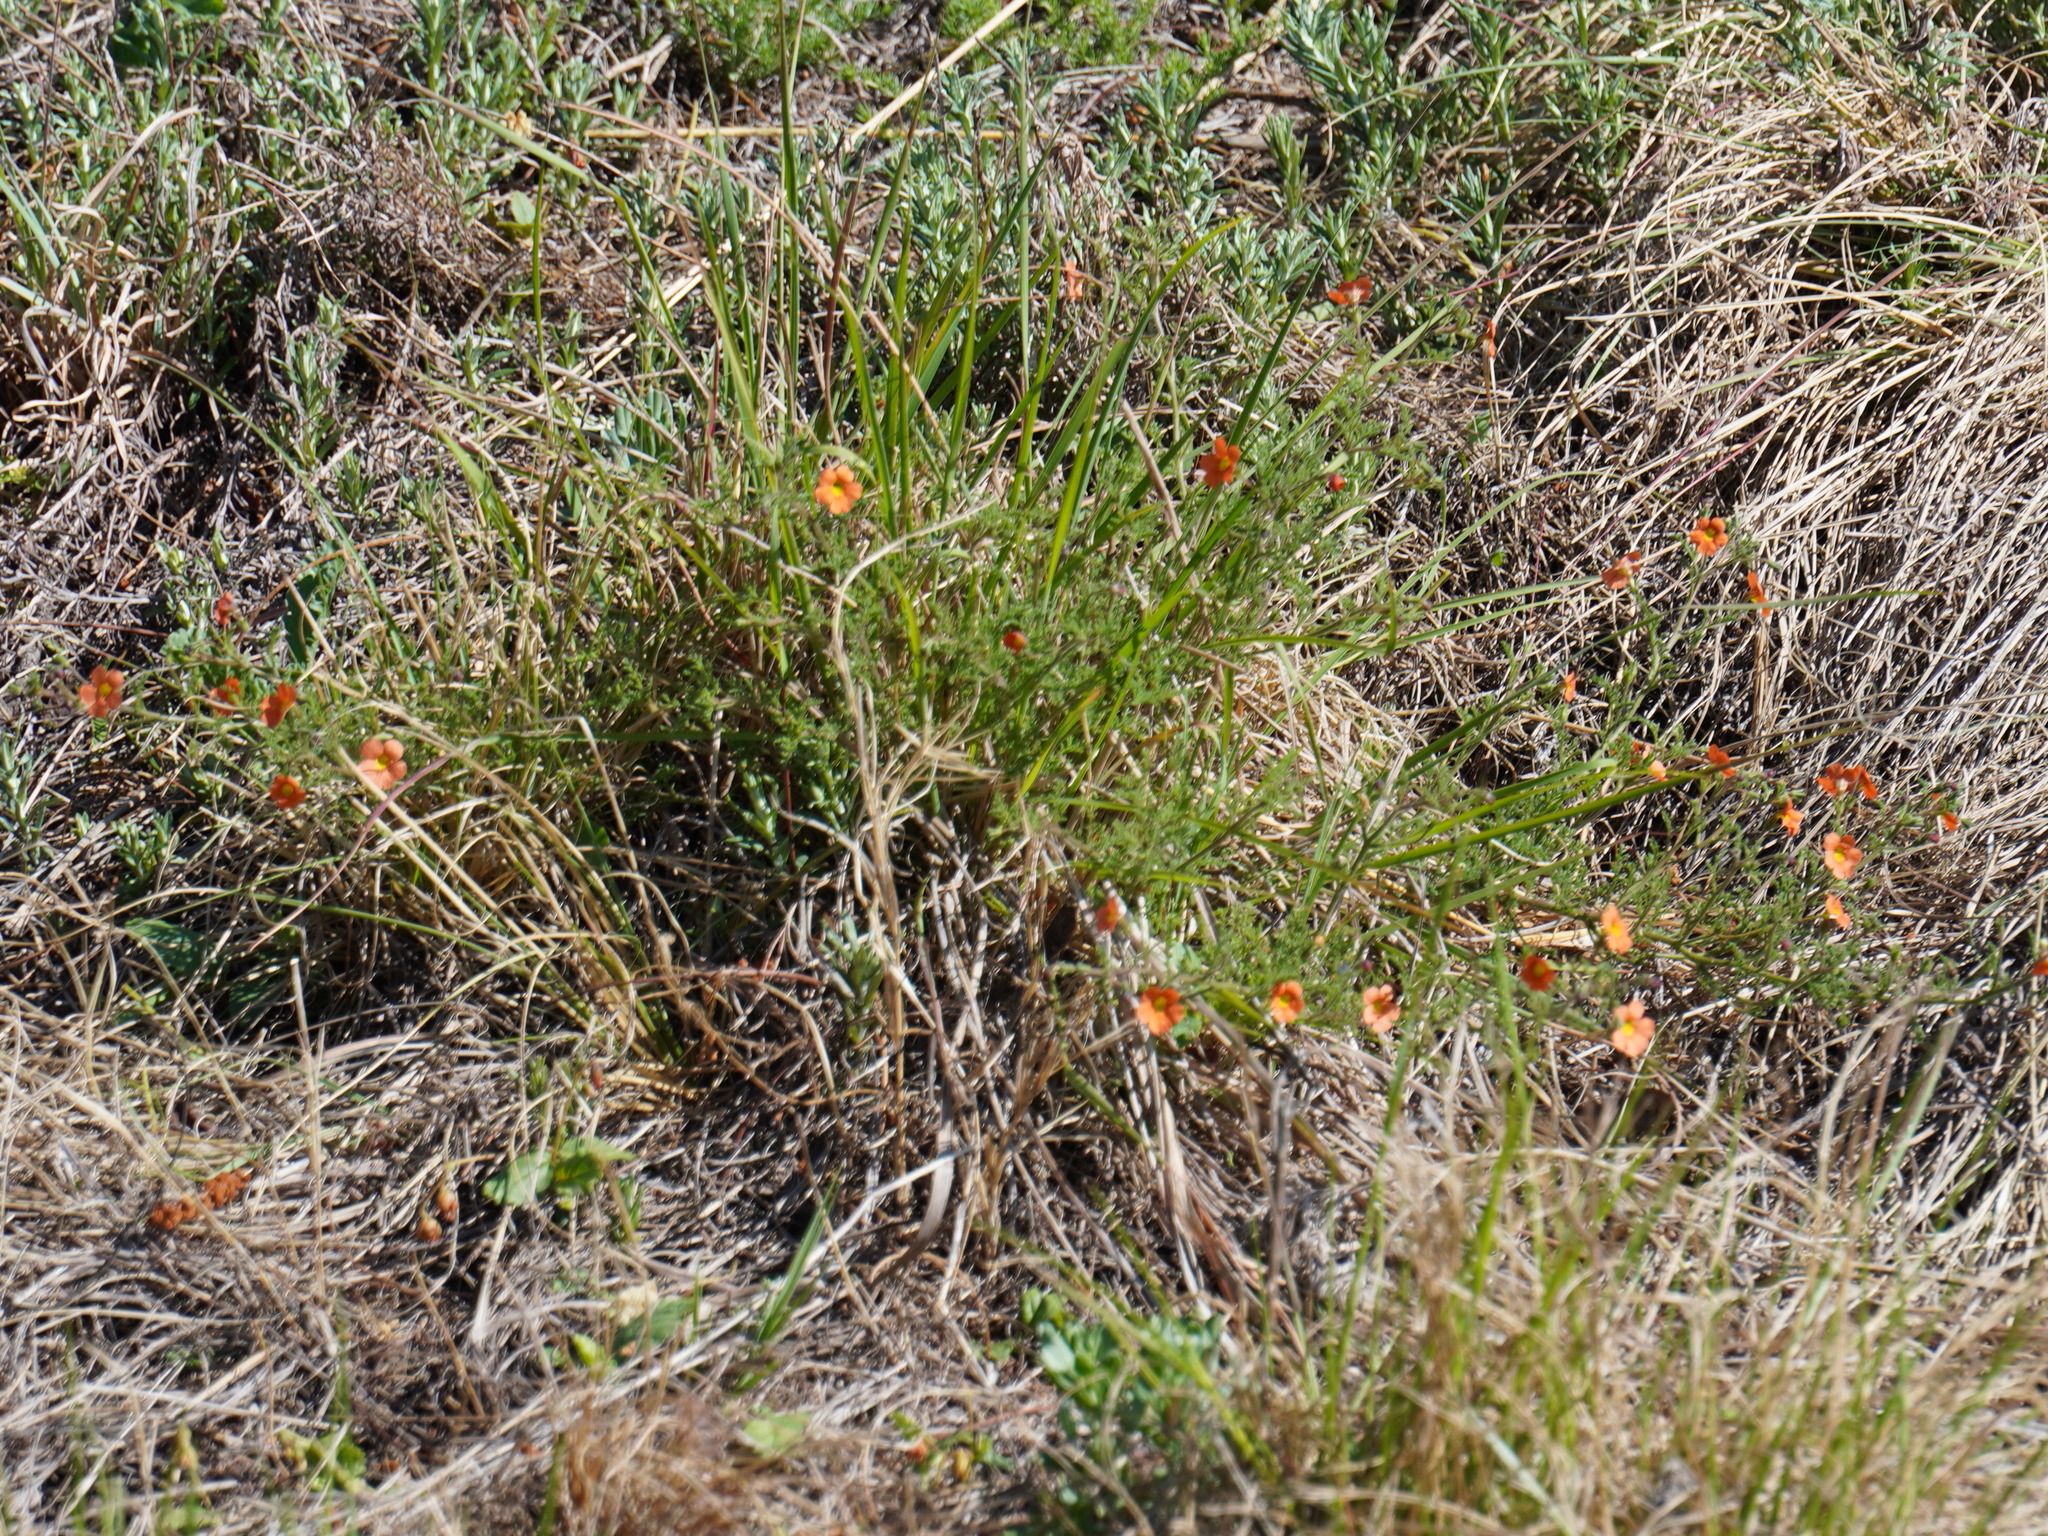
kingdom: Plantae
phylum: Tracheophyta
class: Magnoliopsida
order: Lamiales
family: Scrophulariaceae
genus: Jamesbrittenia
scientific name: Jamesbrittenia aurantiaca
